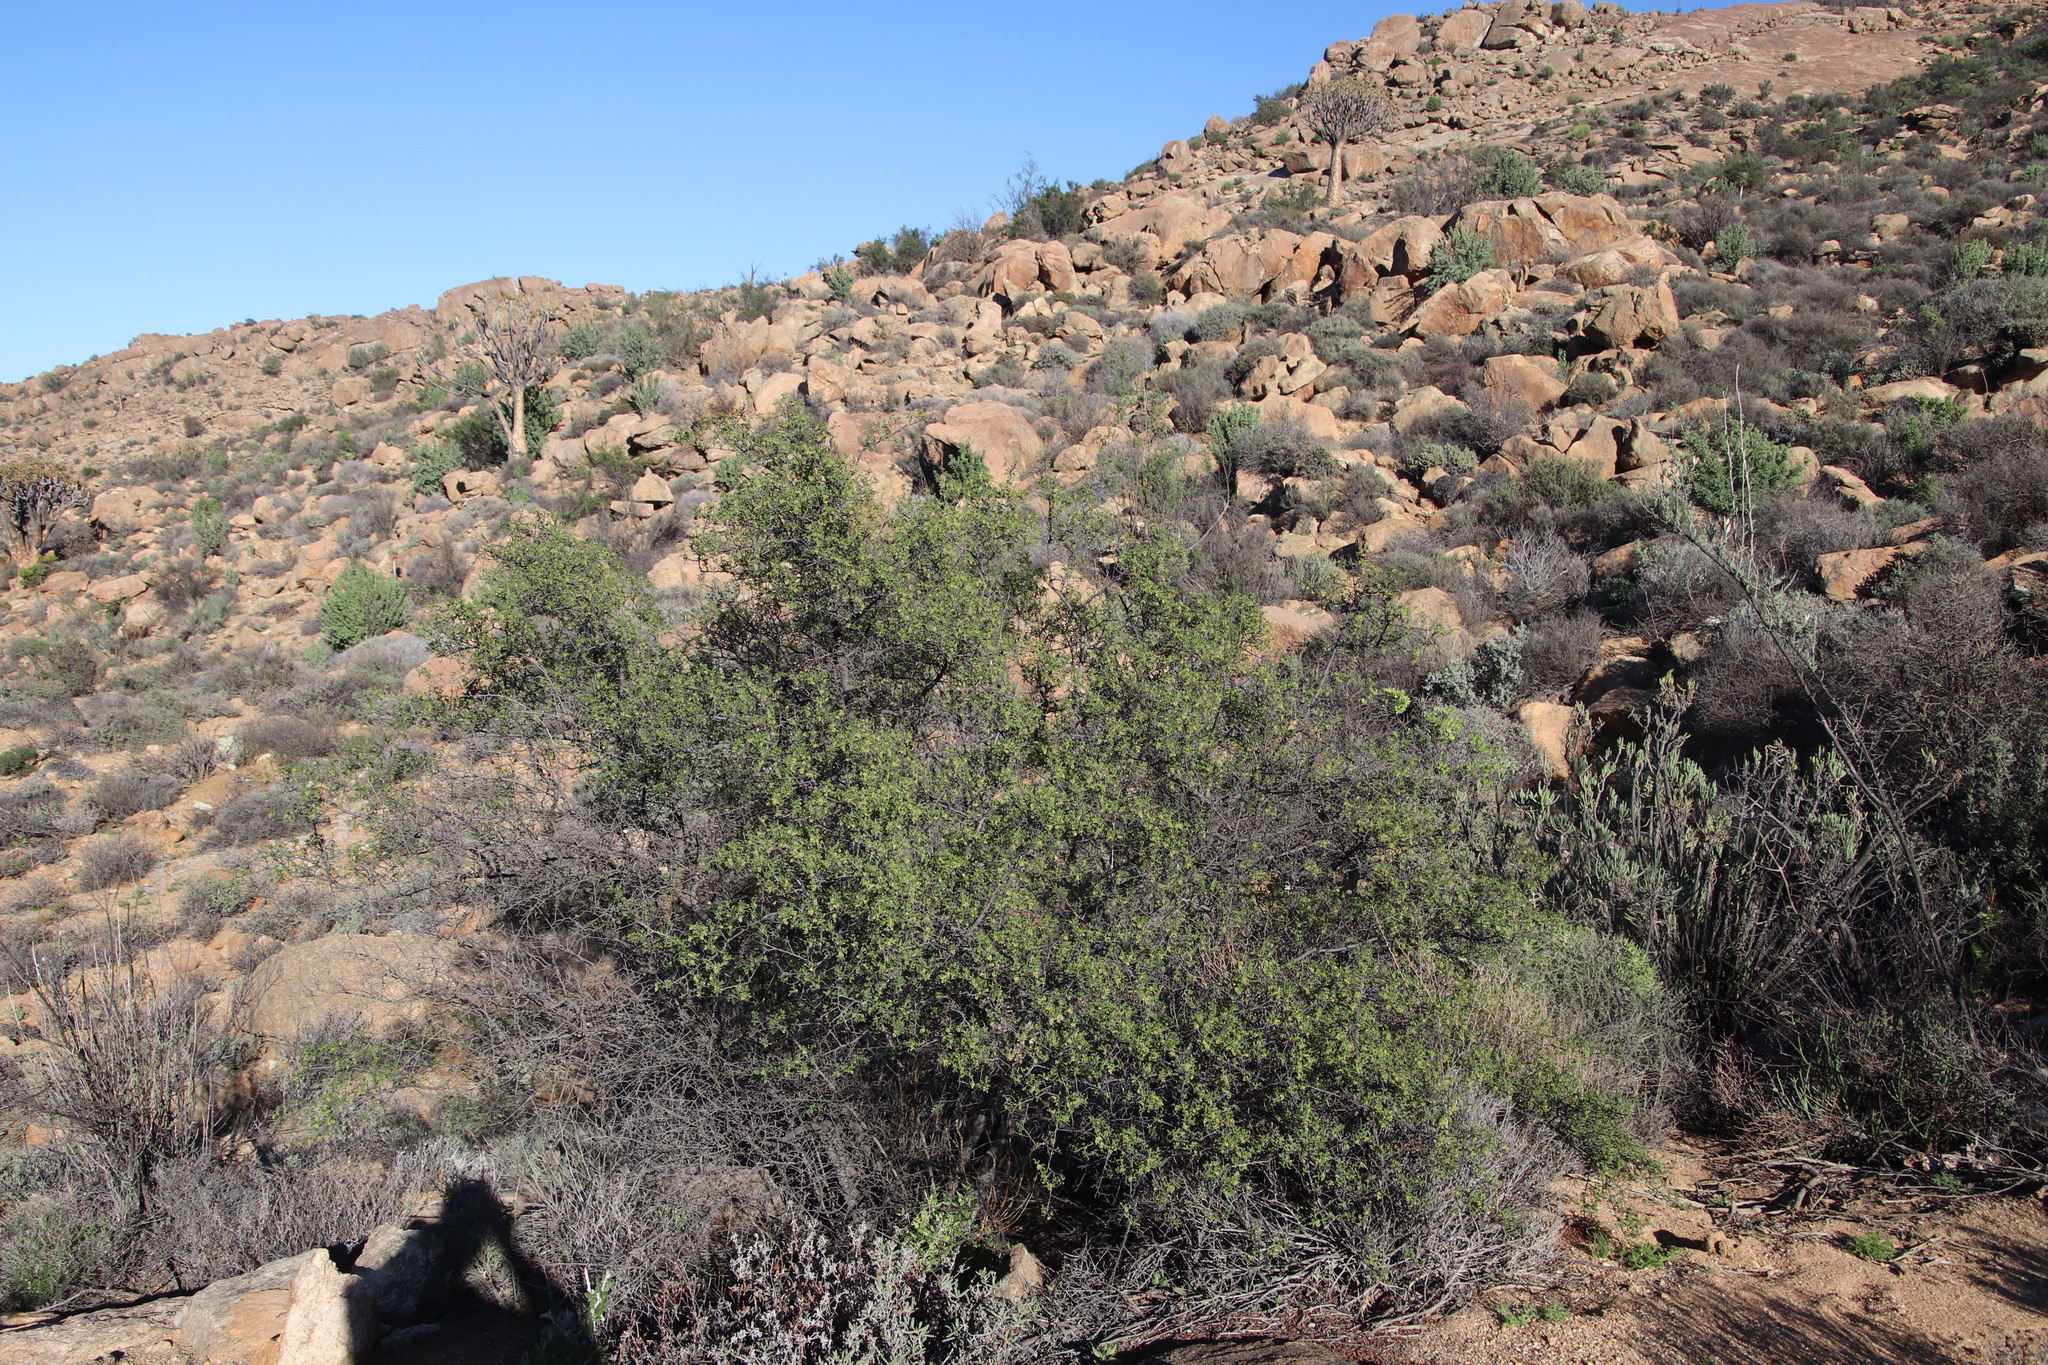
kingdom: Plantae
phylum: Tracheophyta
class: Magnoliopsida
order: Sapindales
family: Anacardiaceae
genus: Searsia
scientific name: Searsia undulata
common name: Namaqua kunibush
